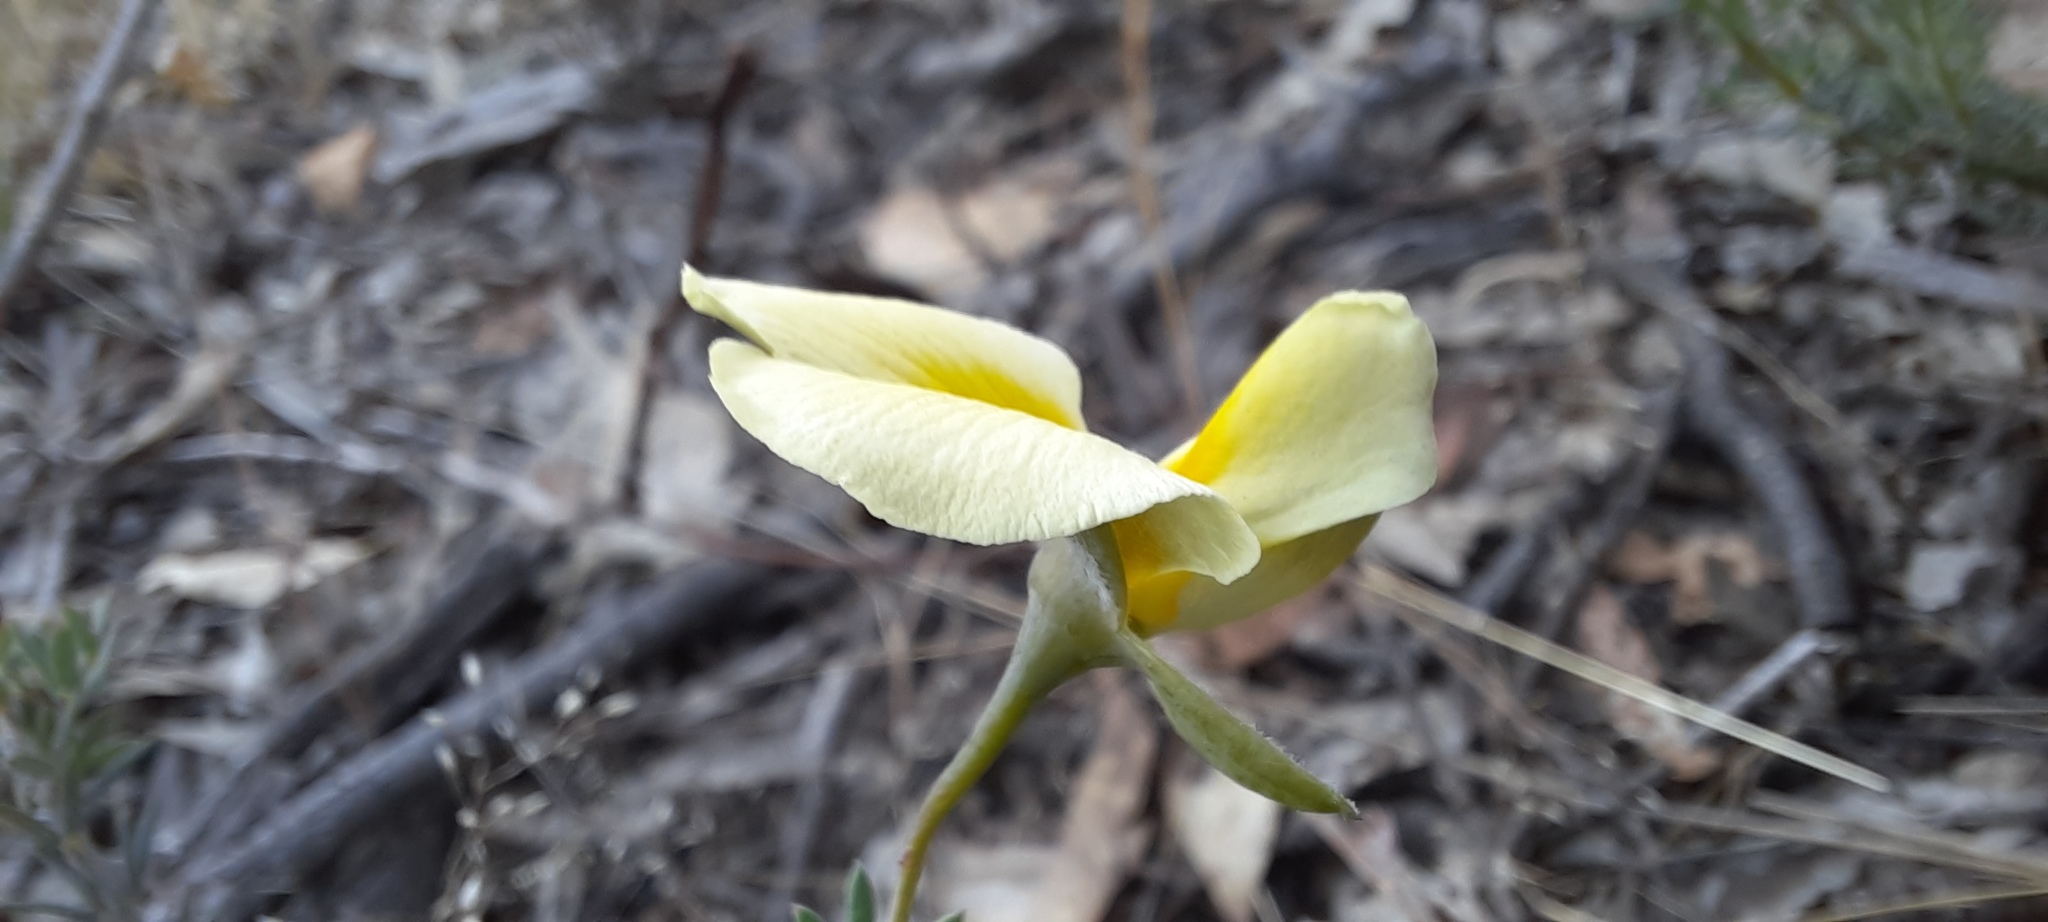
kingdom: Plantae
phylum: Tracheophyta
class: Magnoliopsida
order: Fabales
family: Fabaceae
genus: Gompholobium
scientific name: Gompholobium huegelii
